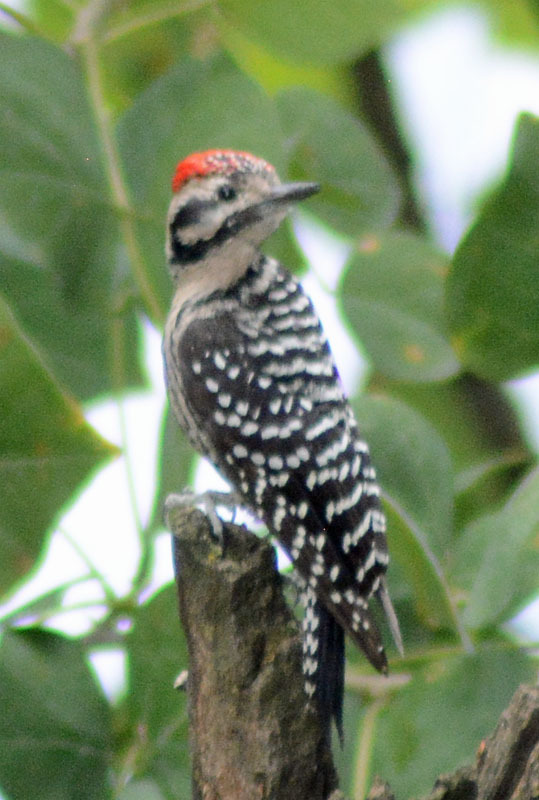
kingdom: Animalia
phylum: Chordata
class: Aves
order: Piciformes
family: Picidae
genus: Dryobates
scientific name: Dryobates scalaris
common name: Ladder-backed woodpecker
